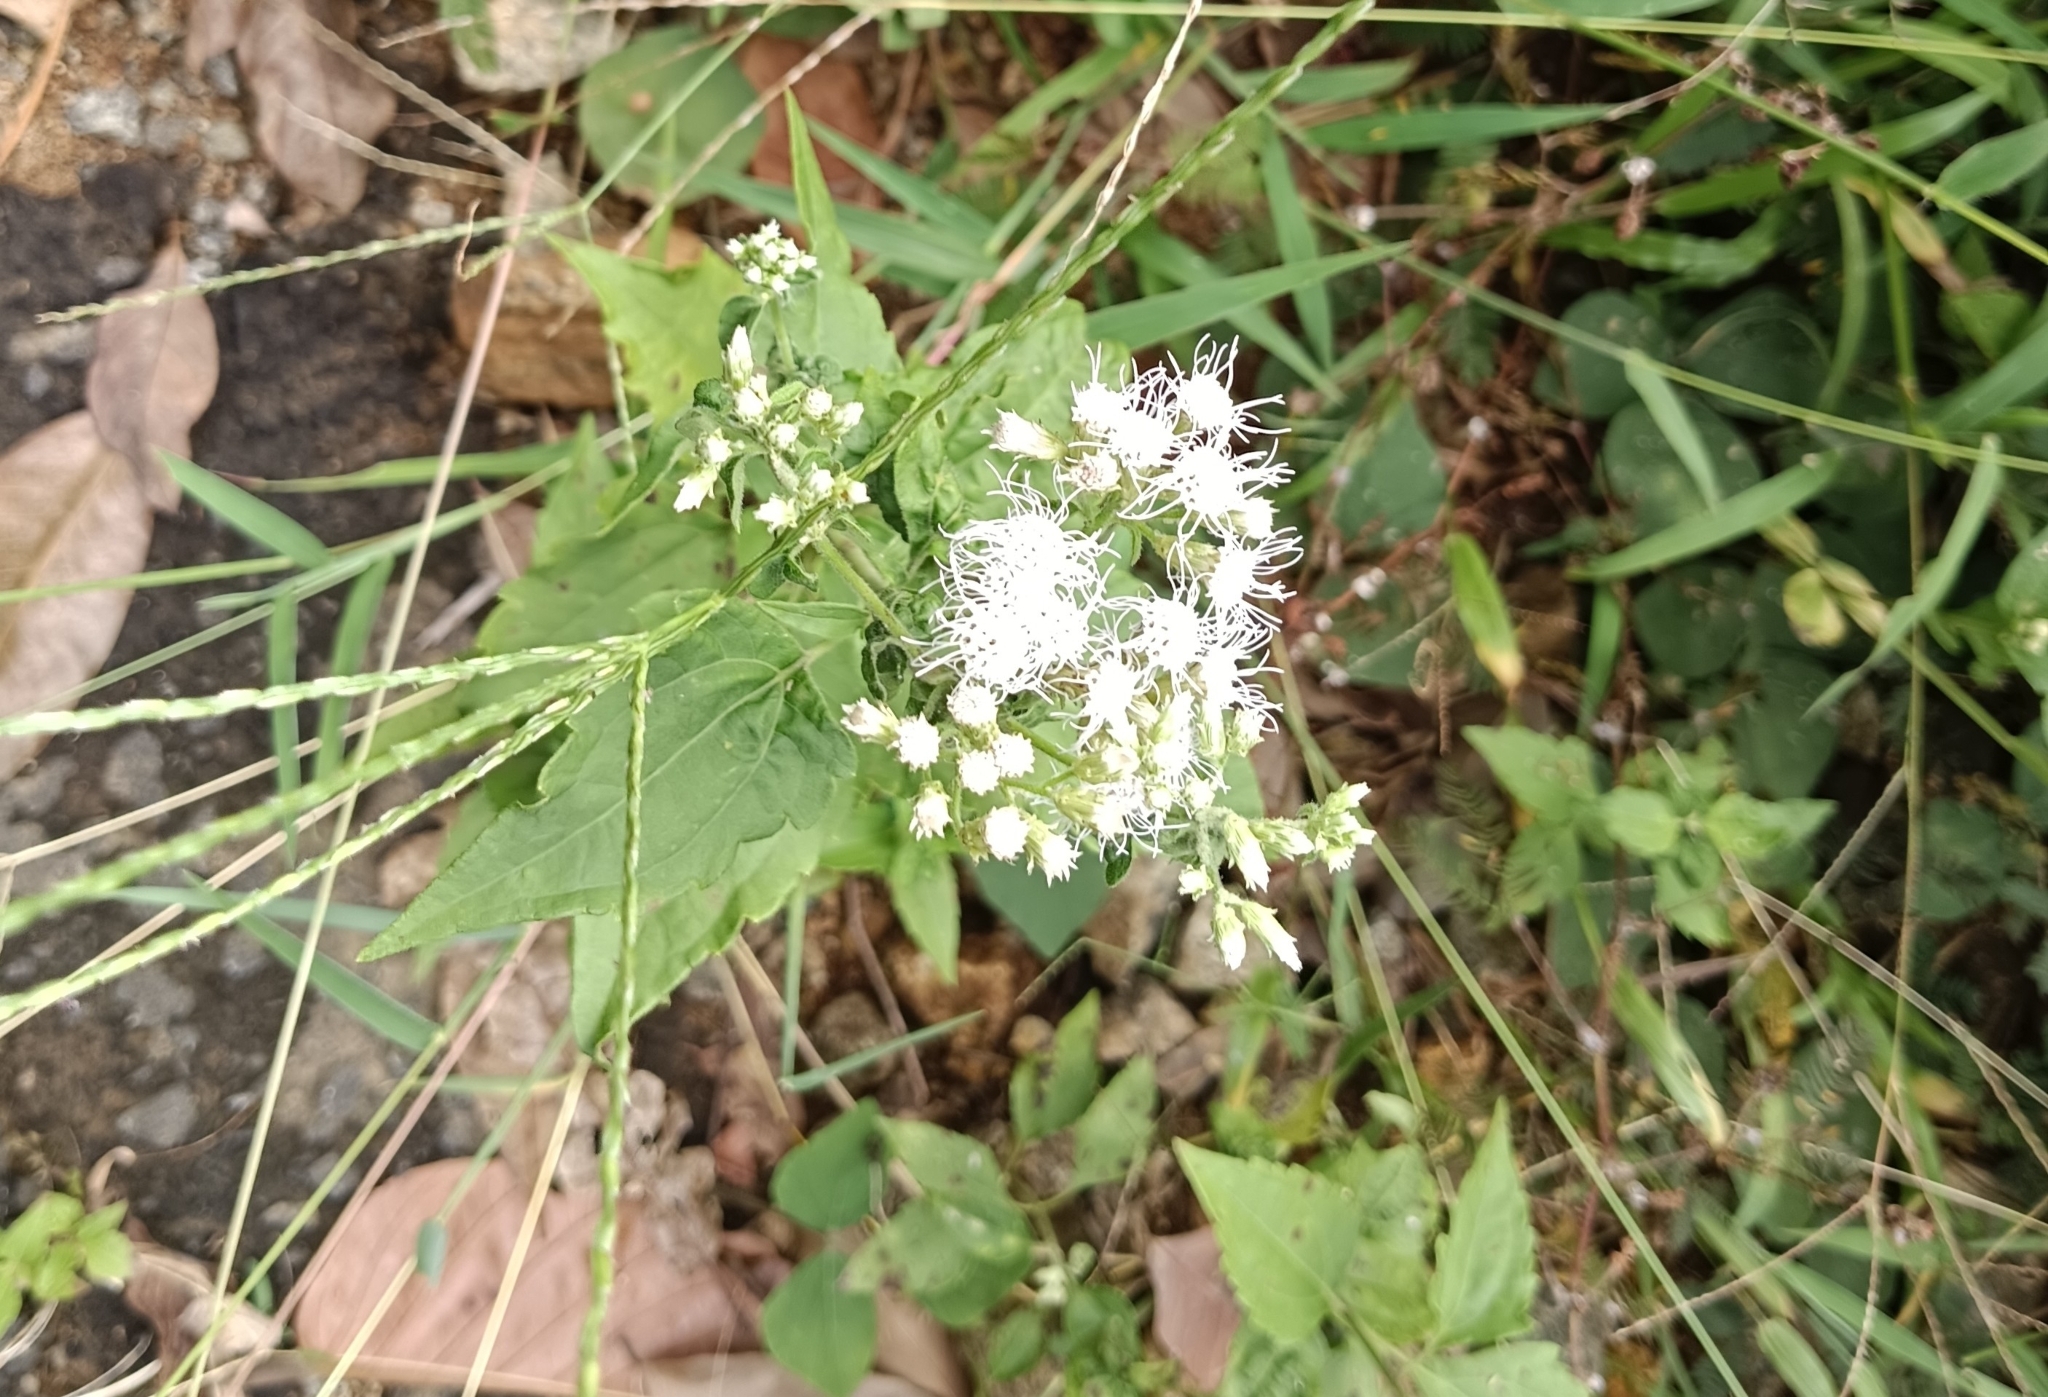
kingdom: Plantae
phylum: Tracheophyta
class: Magnoliopsida
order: Asterales
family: Asteraceae
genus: Chromolaena
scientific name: Chromolaena odorata
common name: Siamweed
